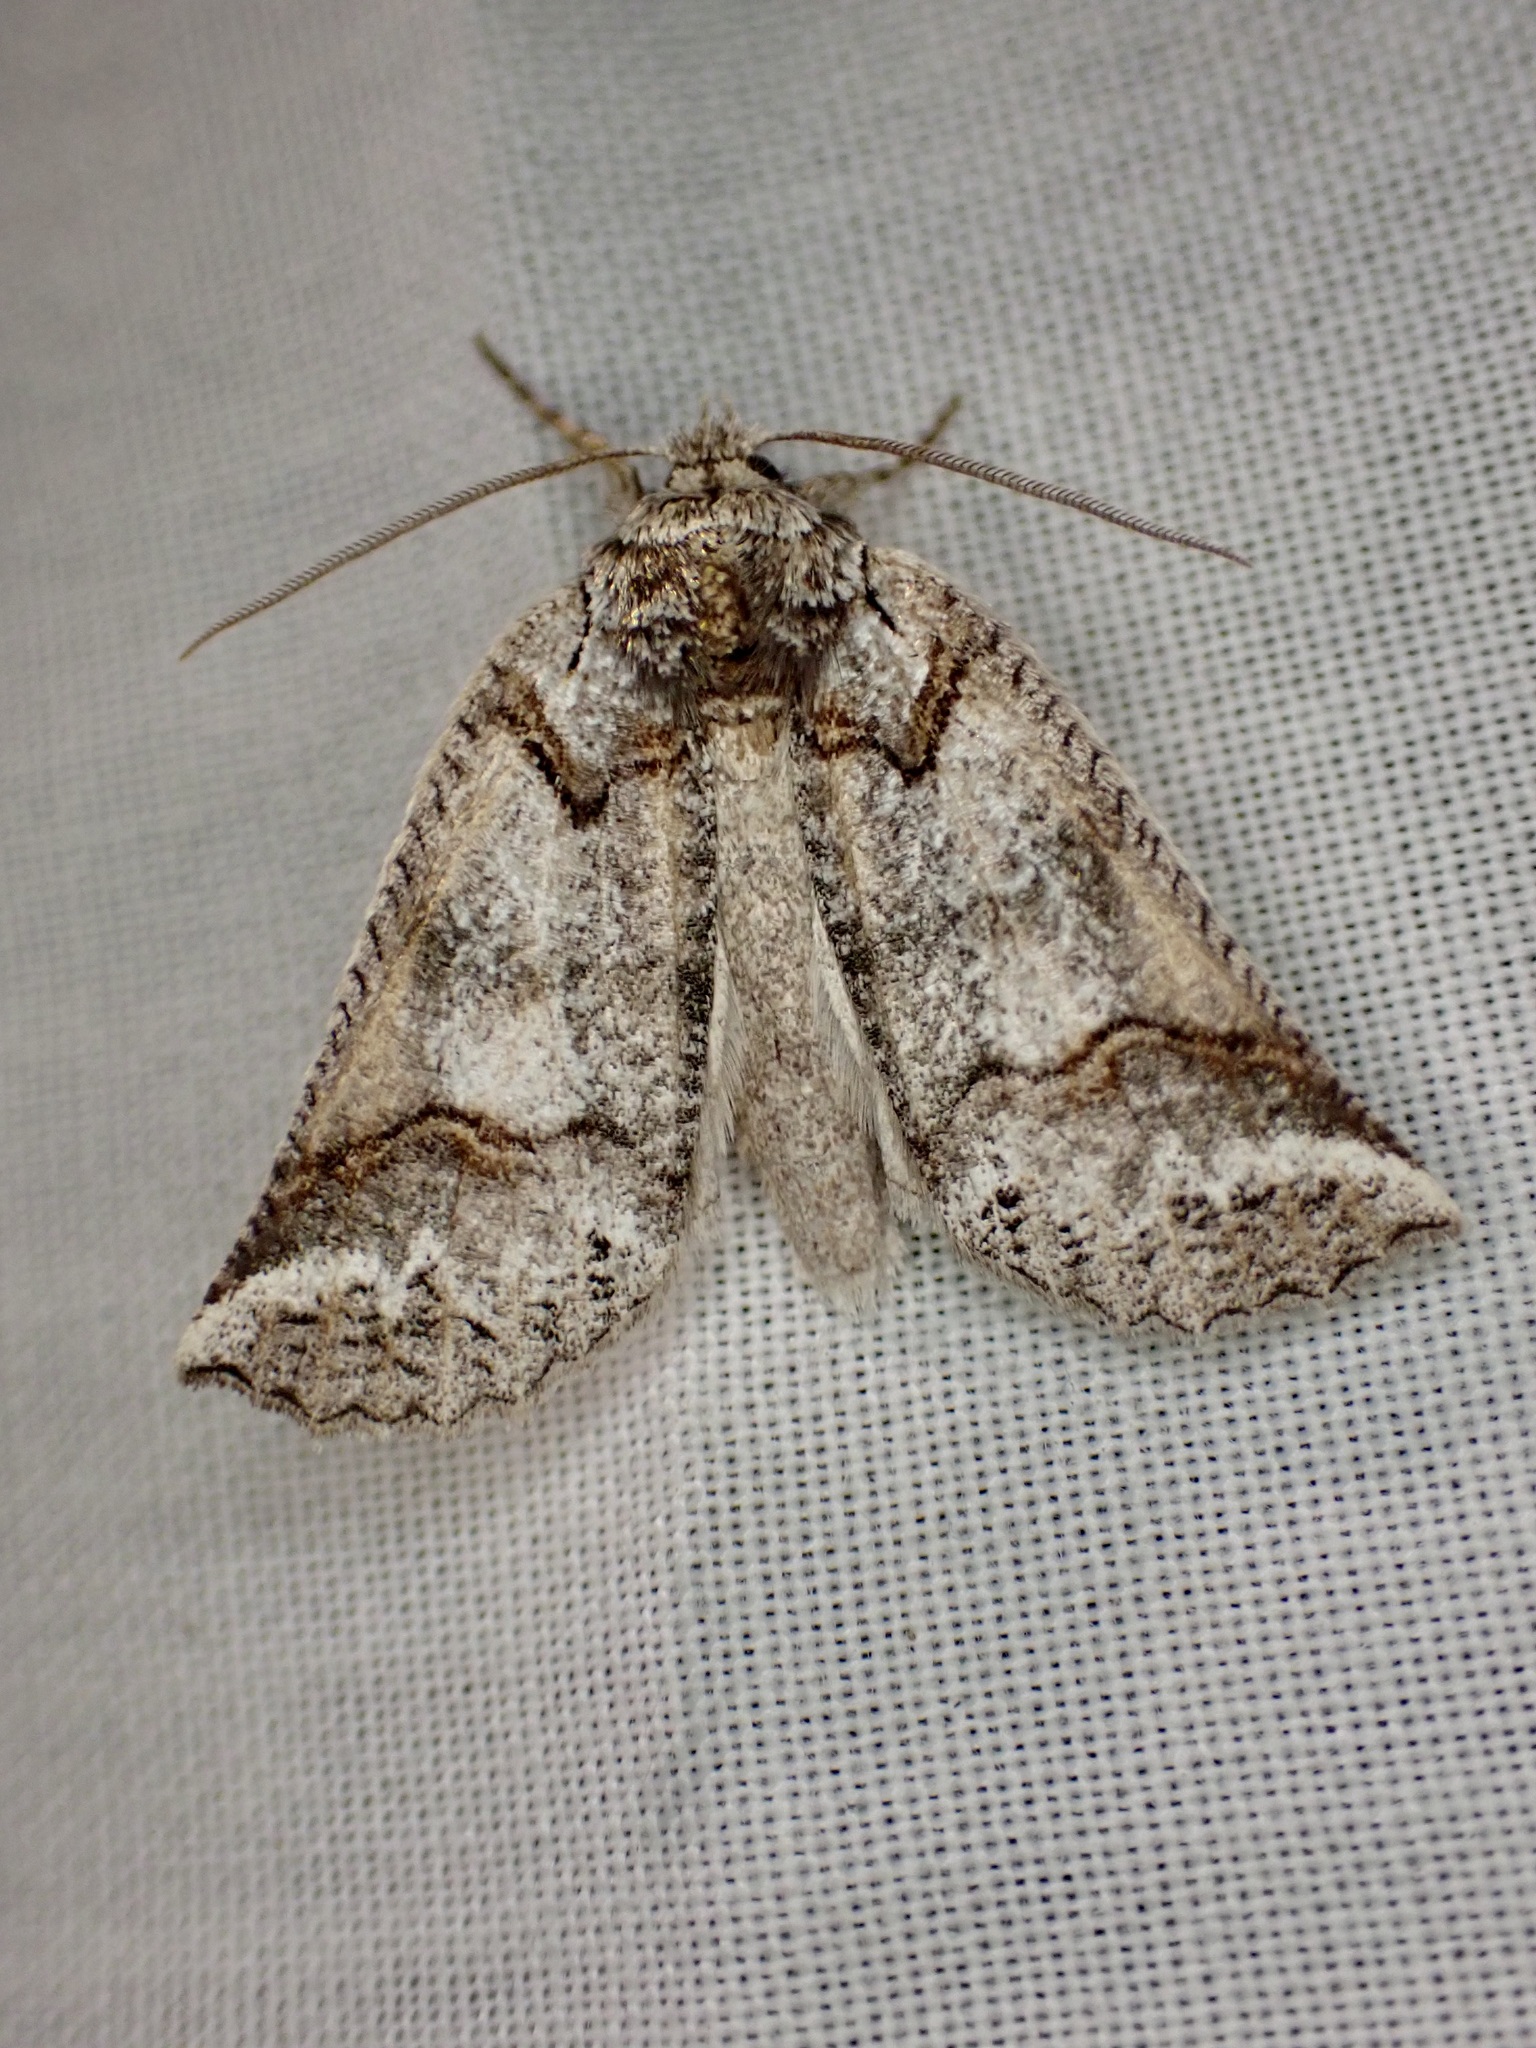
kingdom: Animalia
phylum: Arthropoda
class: Insecta
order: Lepidoptera
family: Geometridae
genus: Declana
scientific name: Declana
